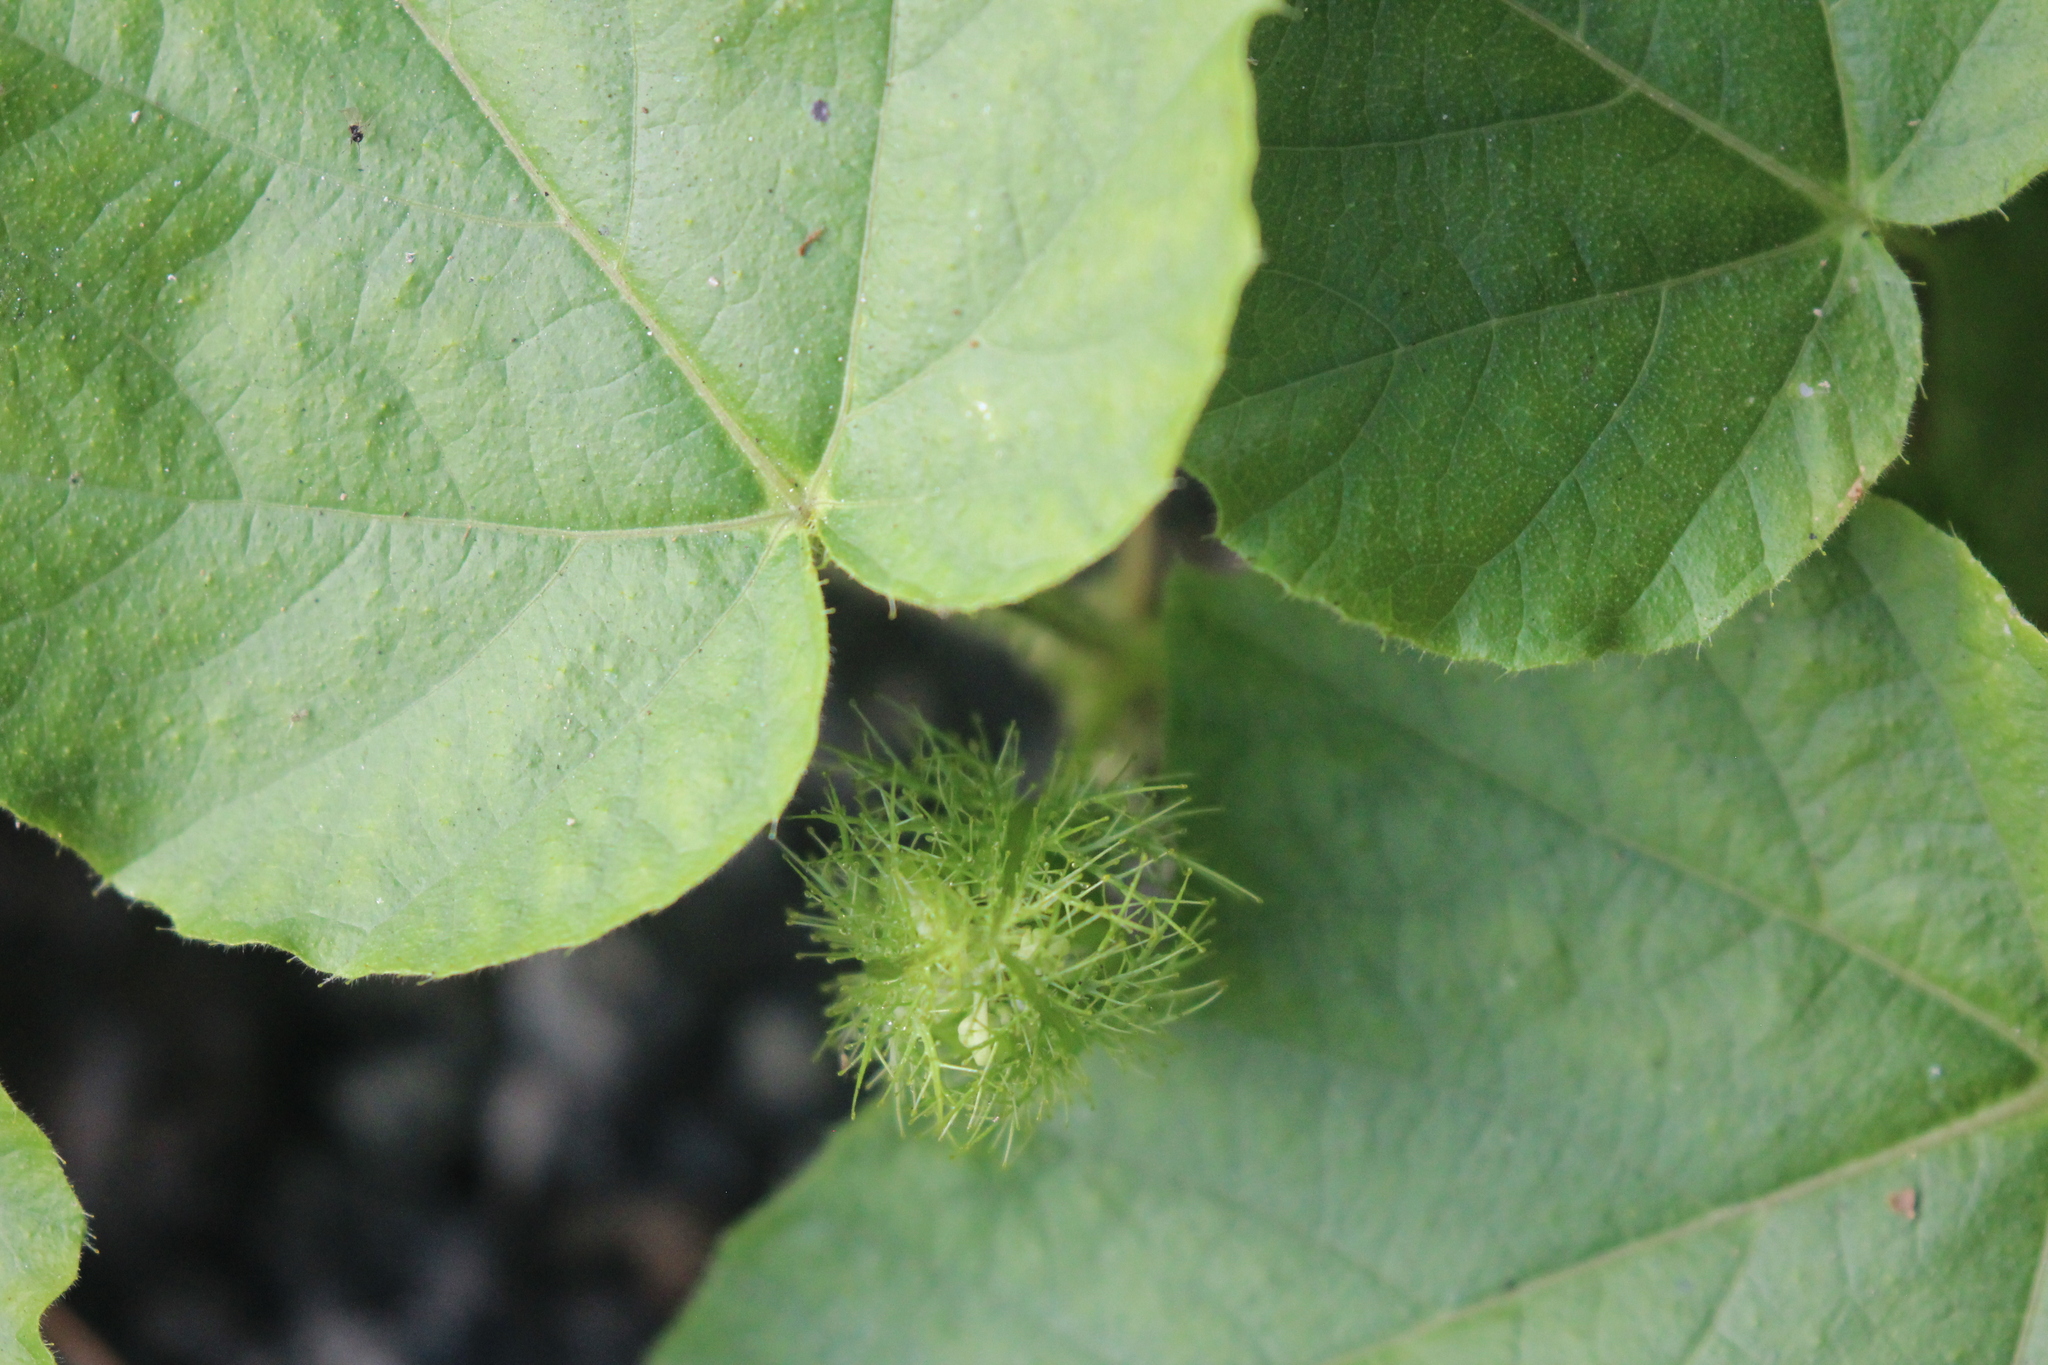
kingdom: Plantae
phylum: Tracheophyta
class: Magnoliopsida
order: Malpighiales
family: Passifloraceae
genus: Passiflora
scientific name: Passiflora vesicaria
